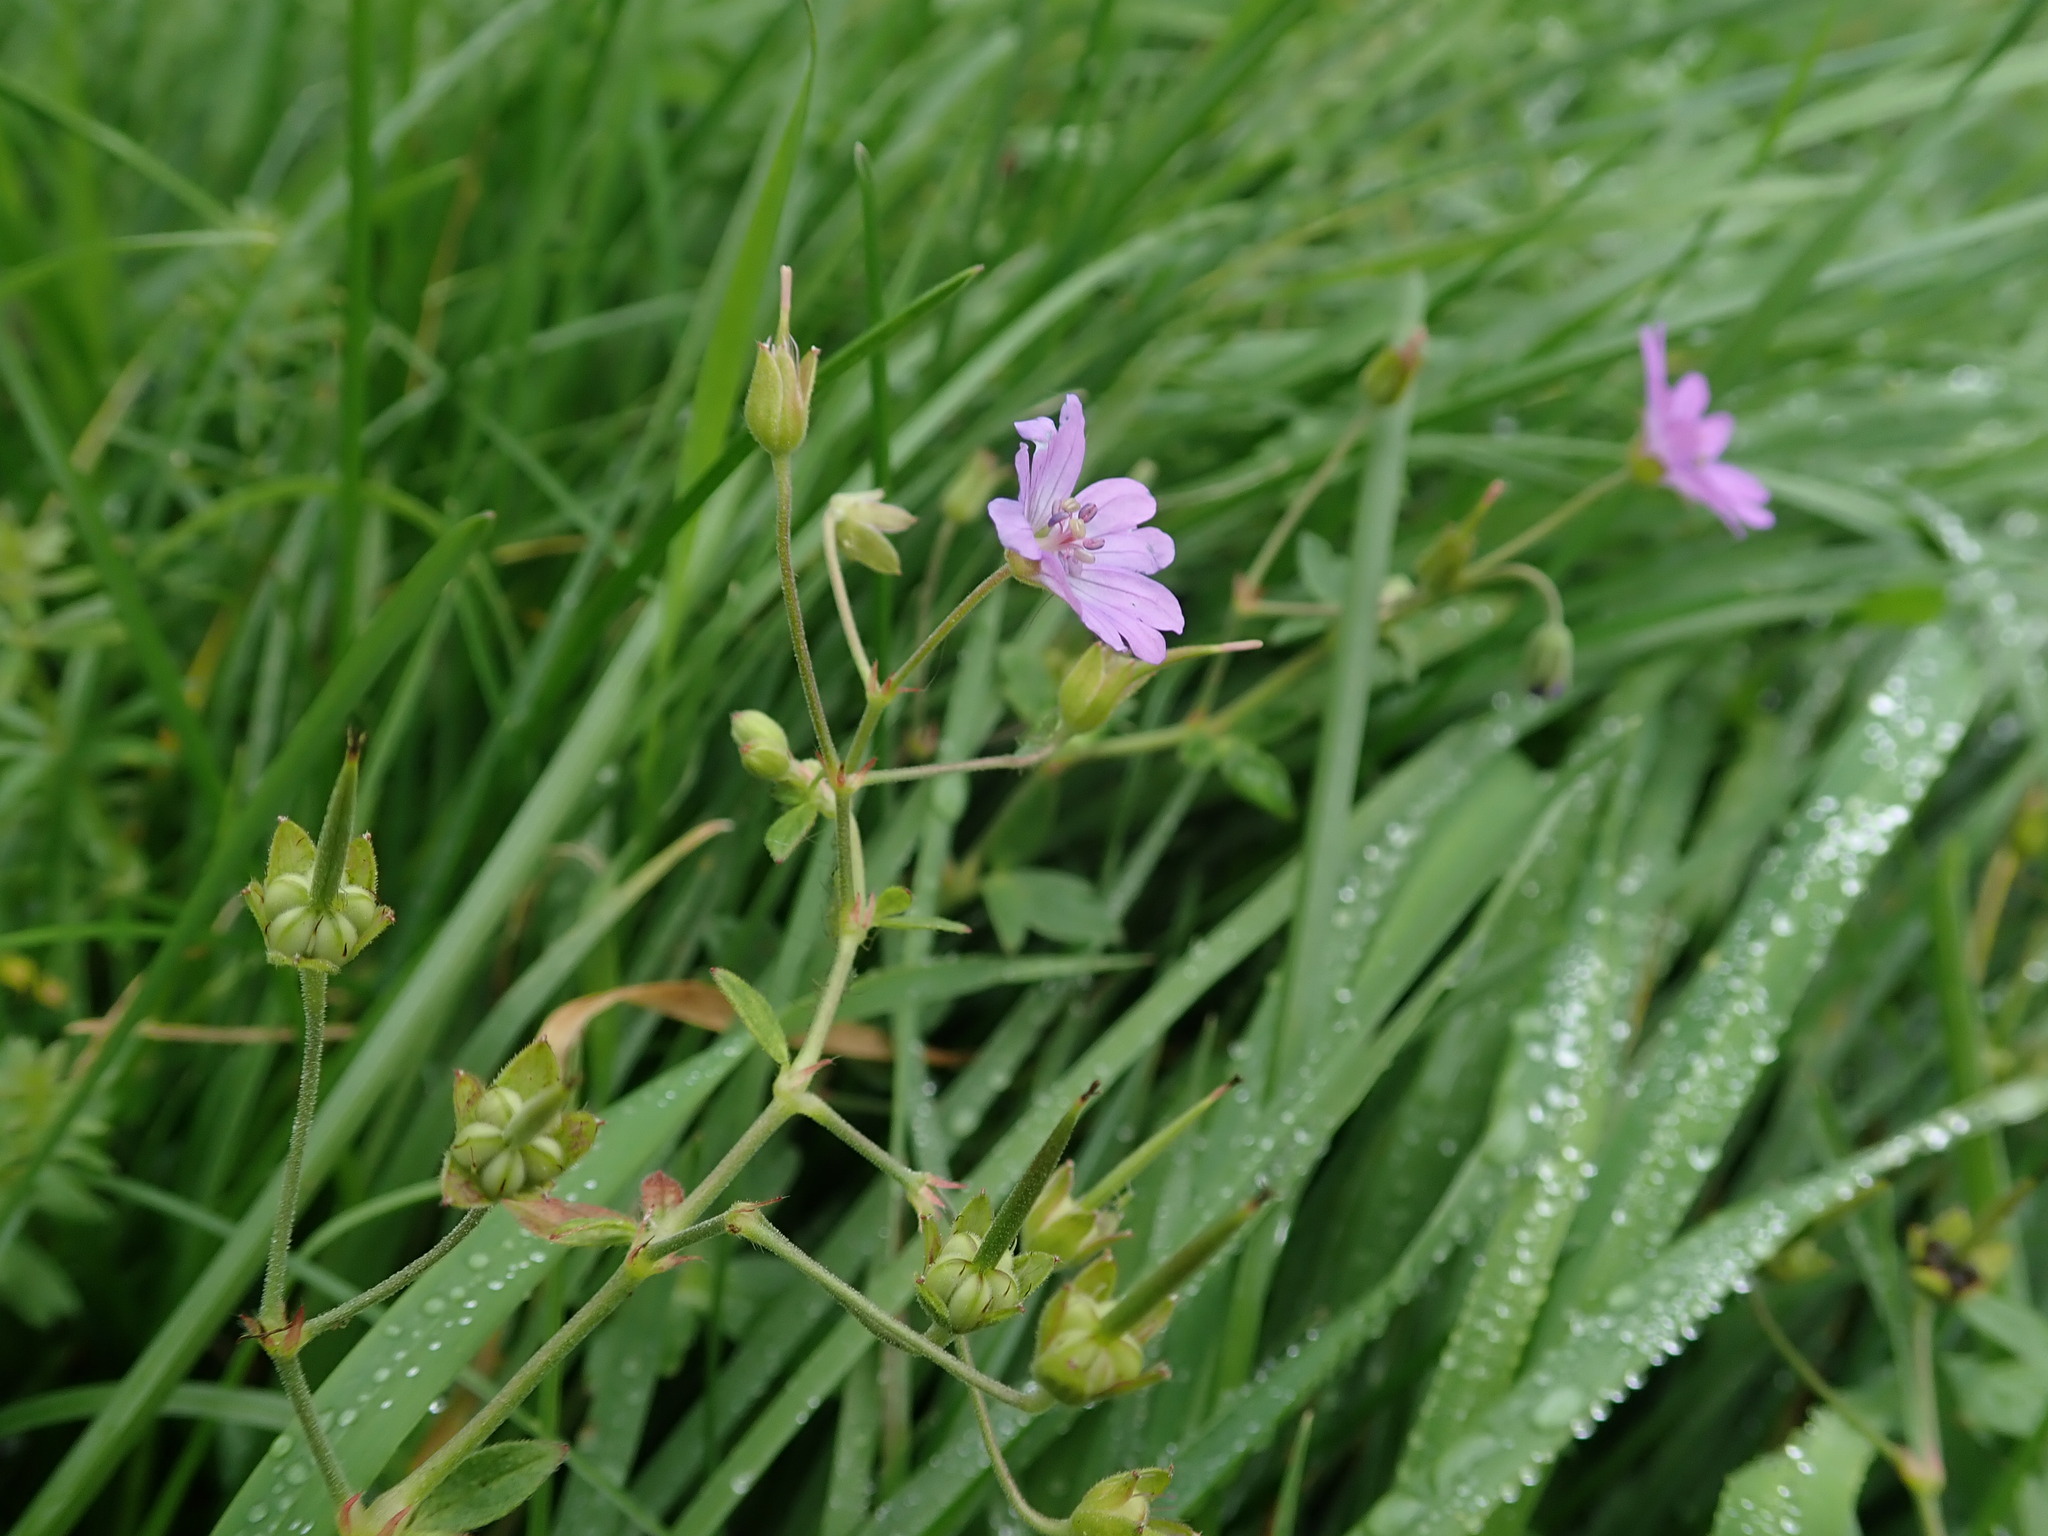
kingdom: Plantae
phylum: Tracheophyta
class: Magnoliopsida
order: Geraniales
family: Geraniaceae
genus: Geranium
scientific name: Geranium pyrenaicum
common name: Hedgerow crane's-bill
